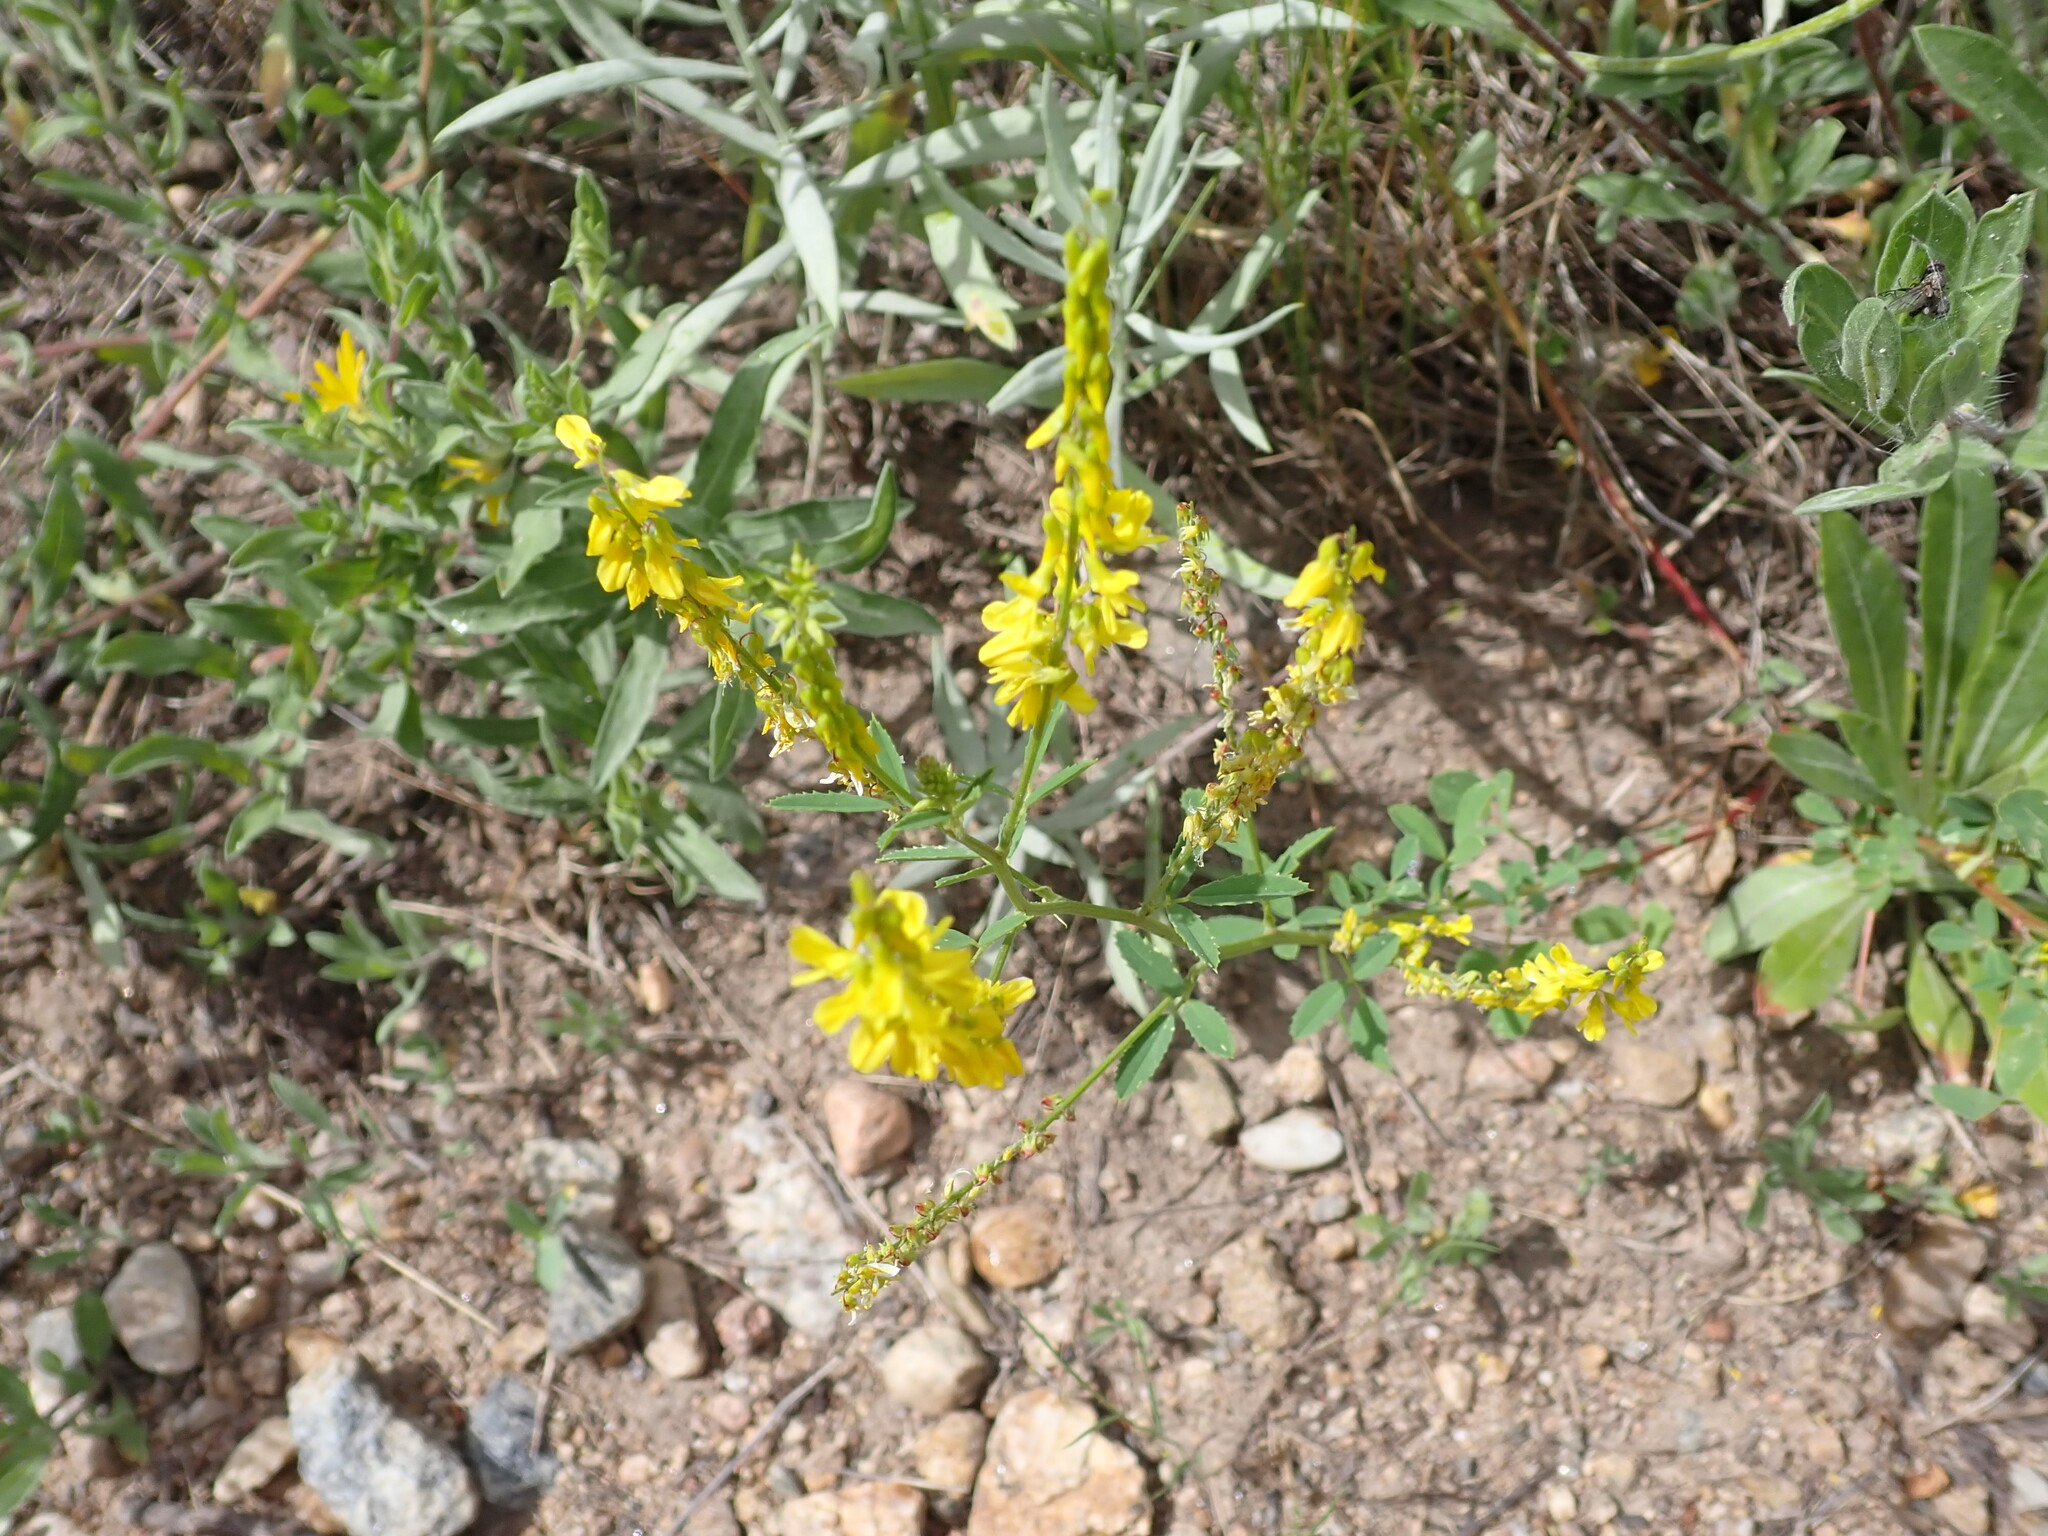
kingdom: Plantae
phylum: Tracheophyta
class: Magnoliopsida
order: Fabales
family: Fabaceae
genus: Melilotus
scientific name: Melilotus officinalis
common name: Sweetclover
